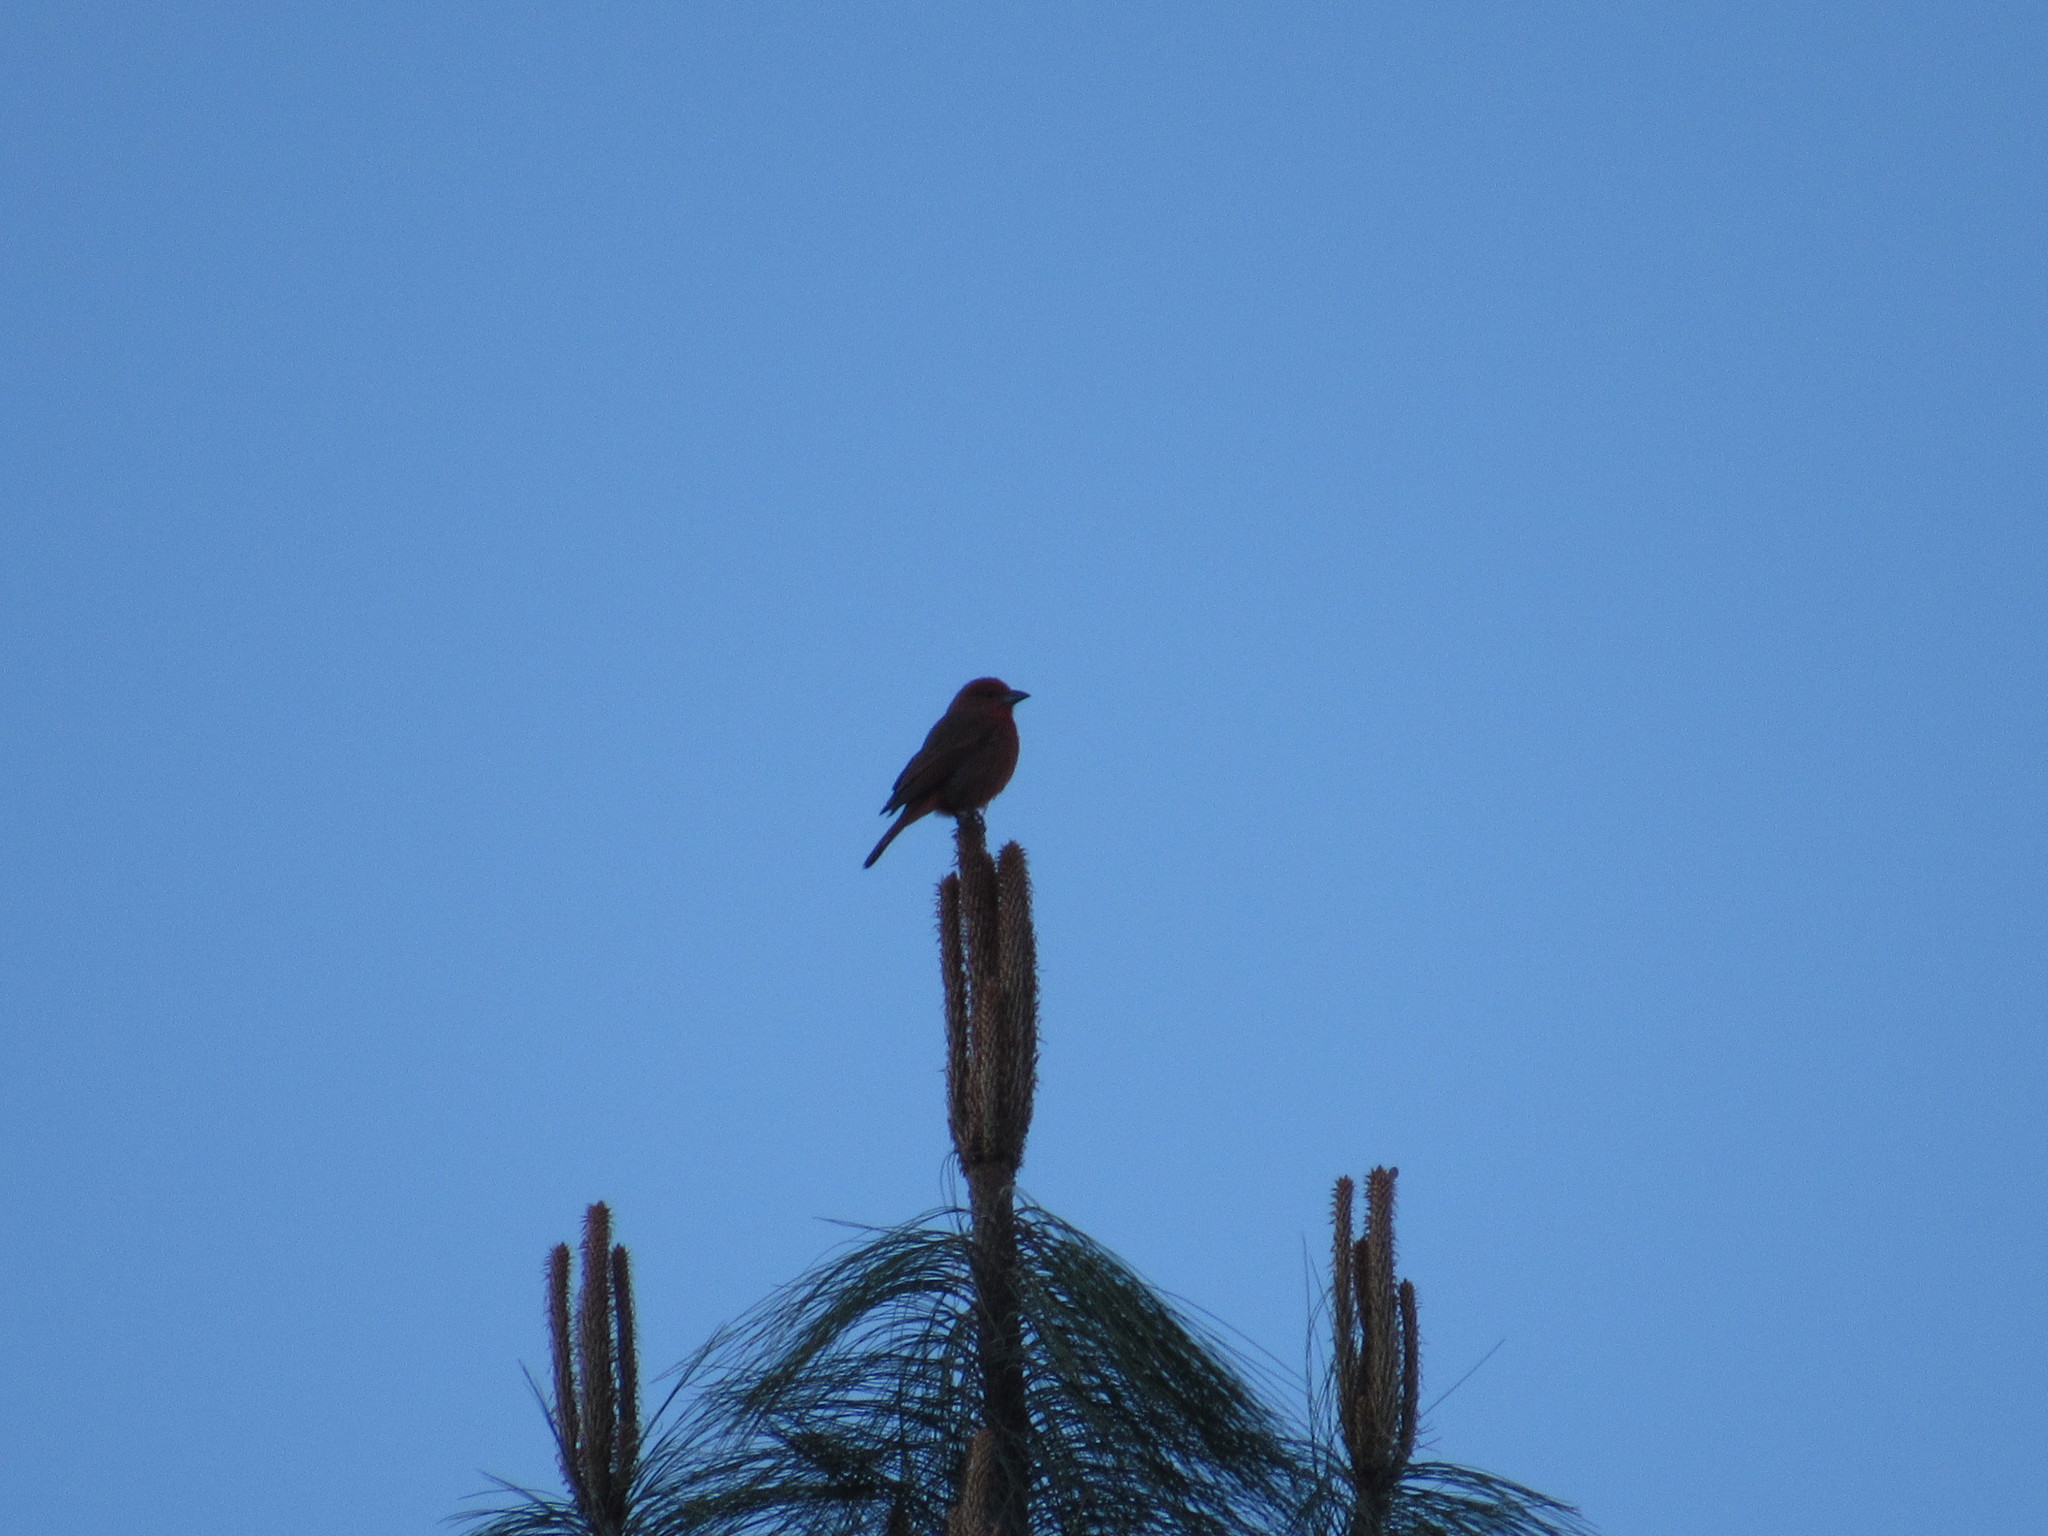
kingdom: Animalia
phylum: Chordata
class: Aves
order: Passeriformes
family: Cardinalidae
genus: Piranga
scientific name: Piranga flava
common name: Red tanager
